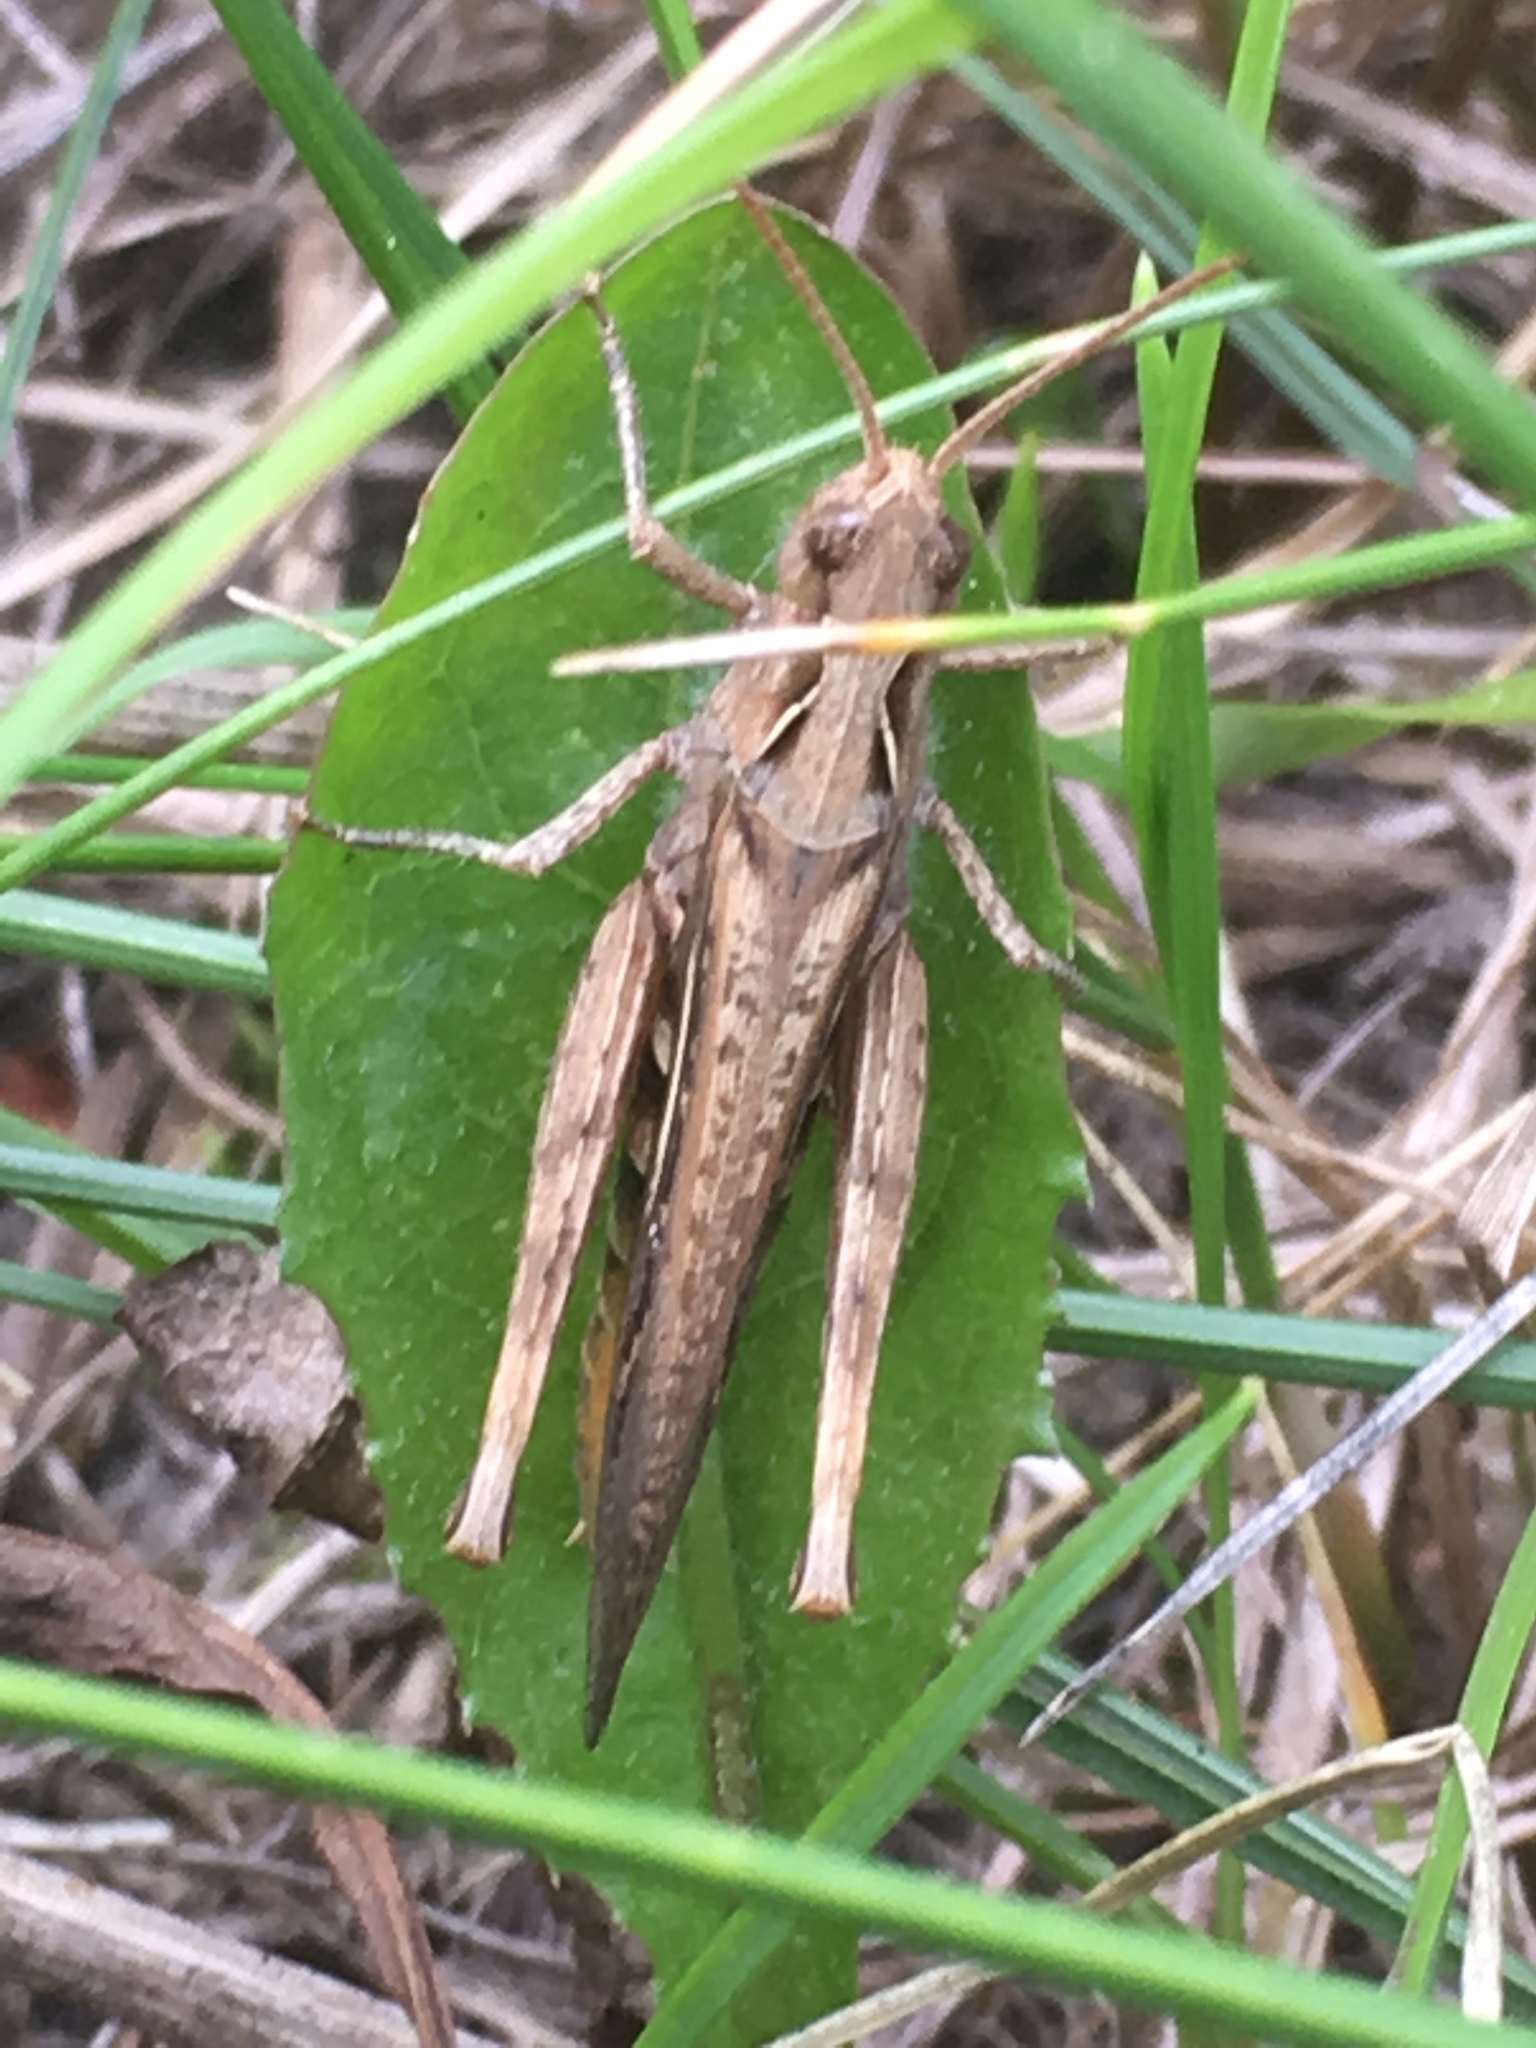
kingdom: Animalia
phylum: Arthropoda
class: Insecta
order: Orthoptera
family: Acrididae
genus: Chorthippus
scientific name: Chorthippus brunneus
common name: Field grasshopper
